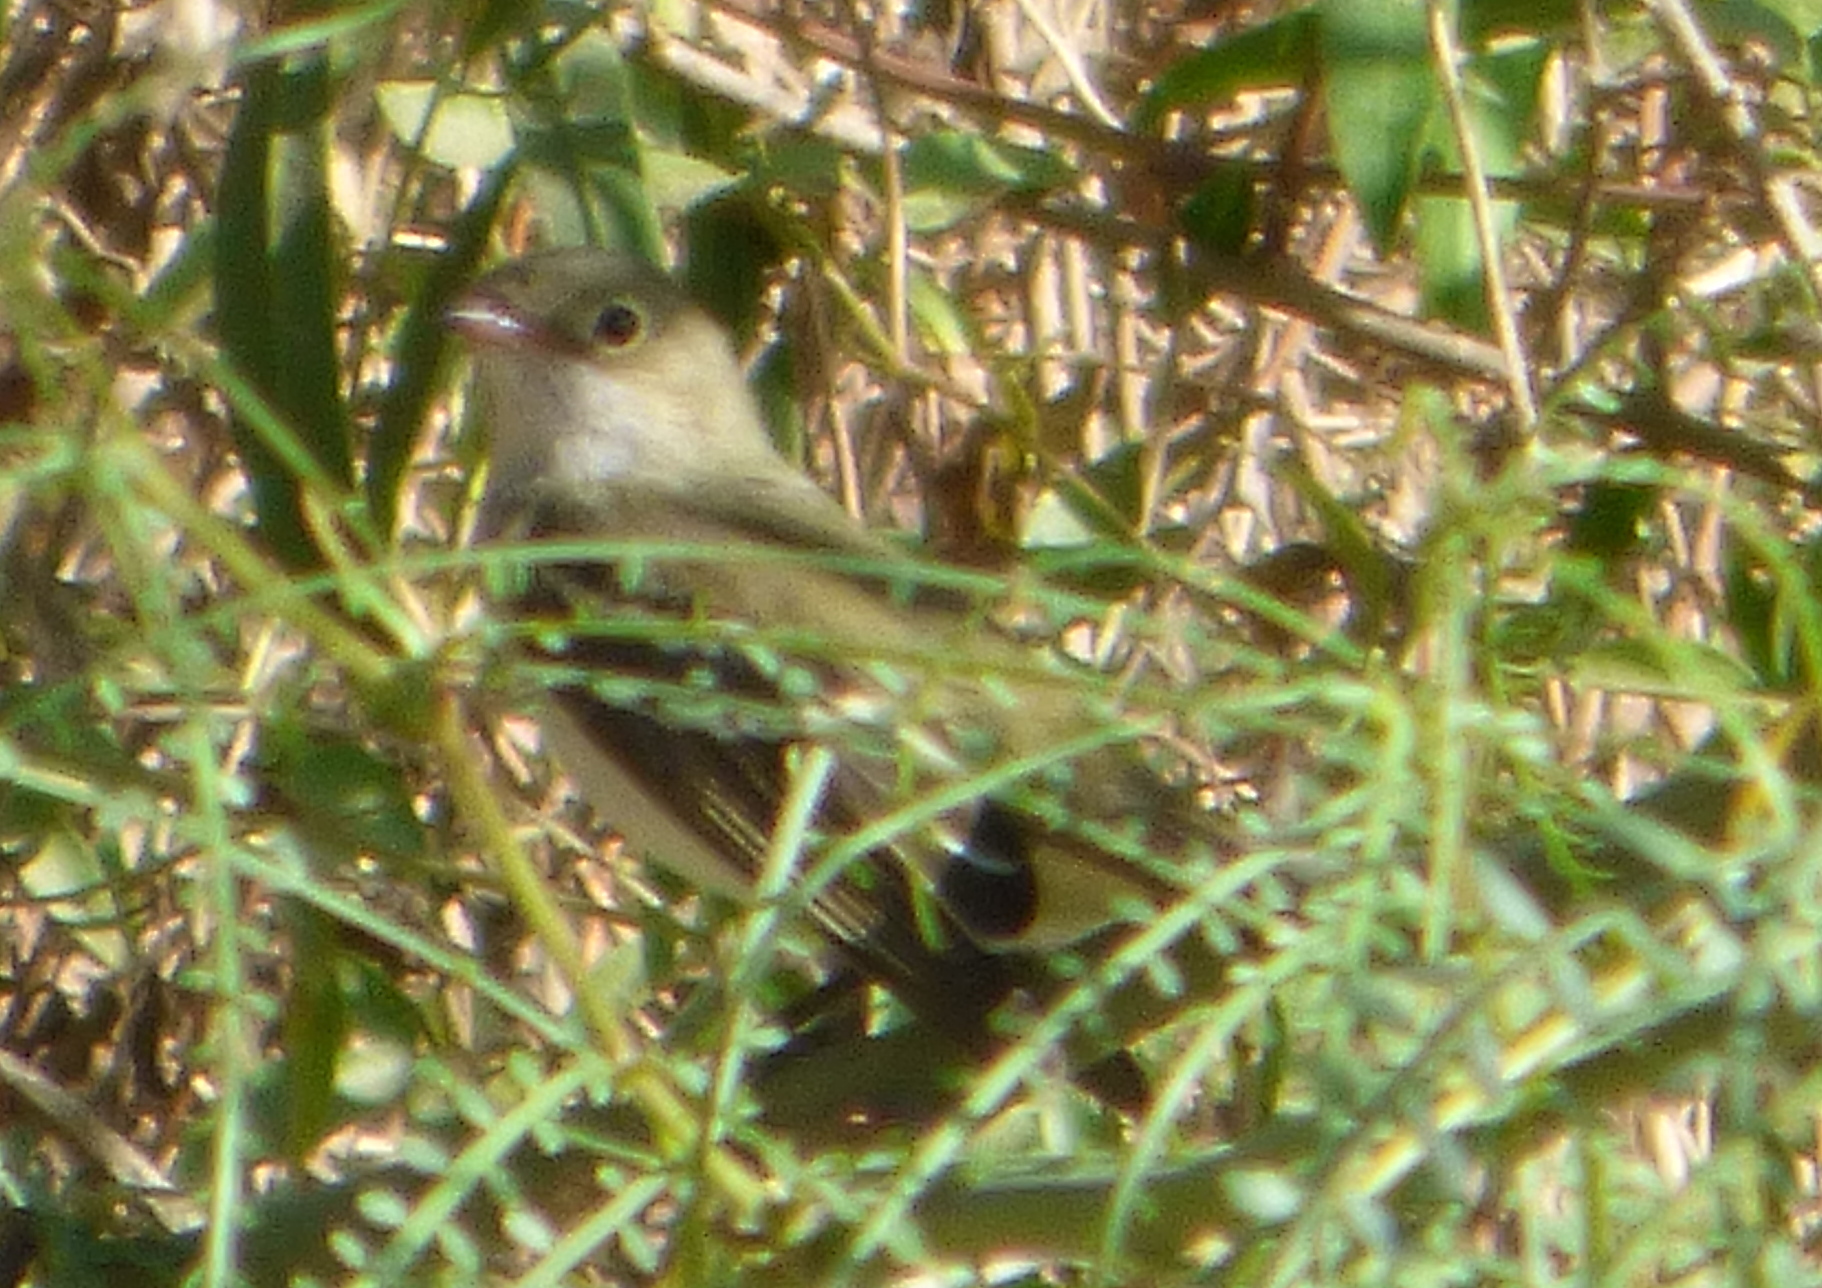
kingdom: Animalia
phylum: Chordata
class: Aves
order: Passeriformes
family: Tyrannidae
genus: Elaenia
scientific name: Elaenia parvirostris
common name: Small-billed elaenia
